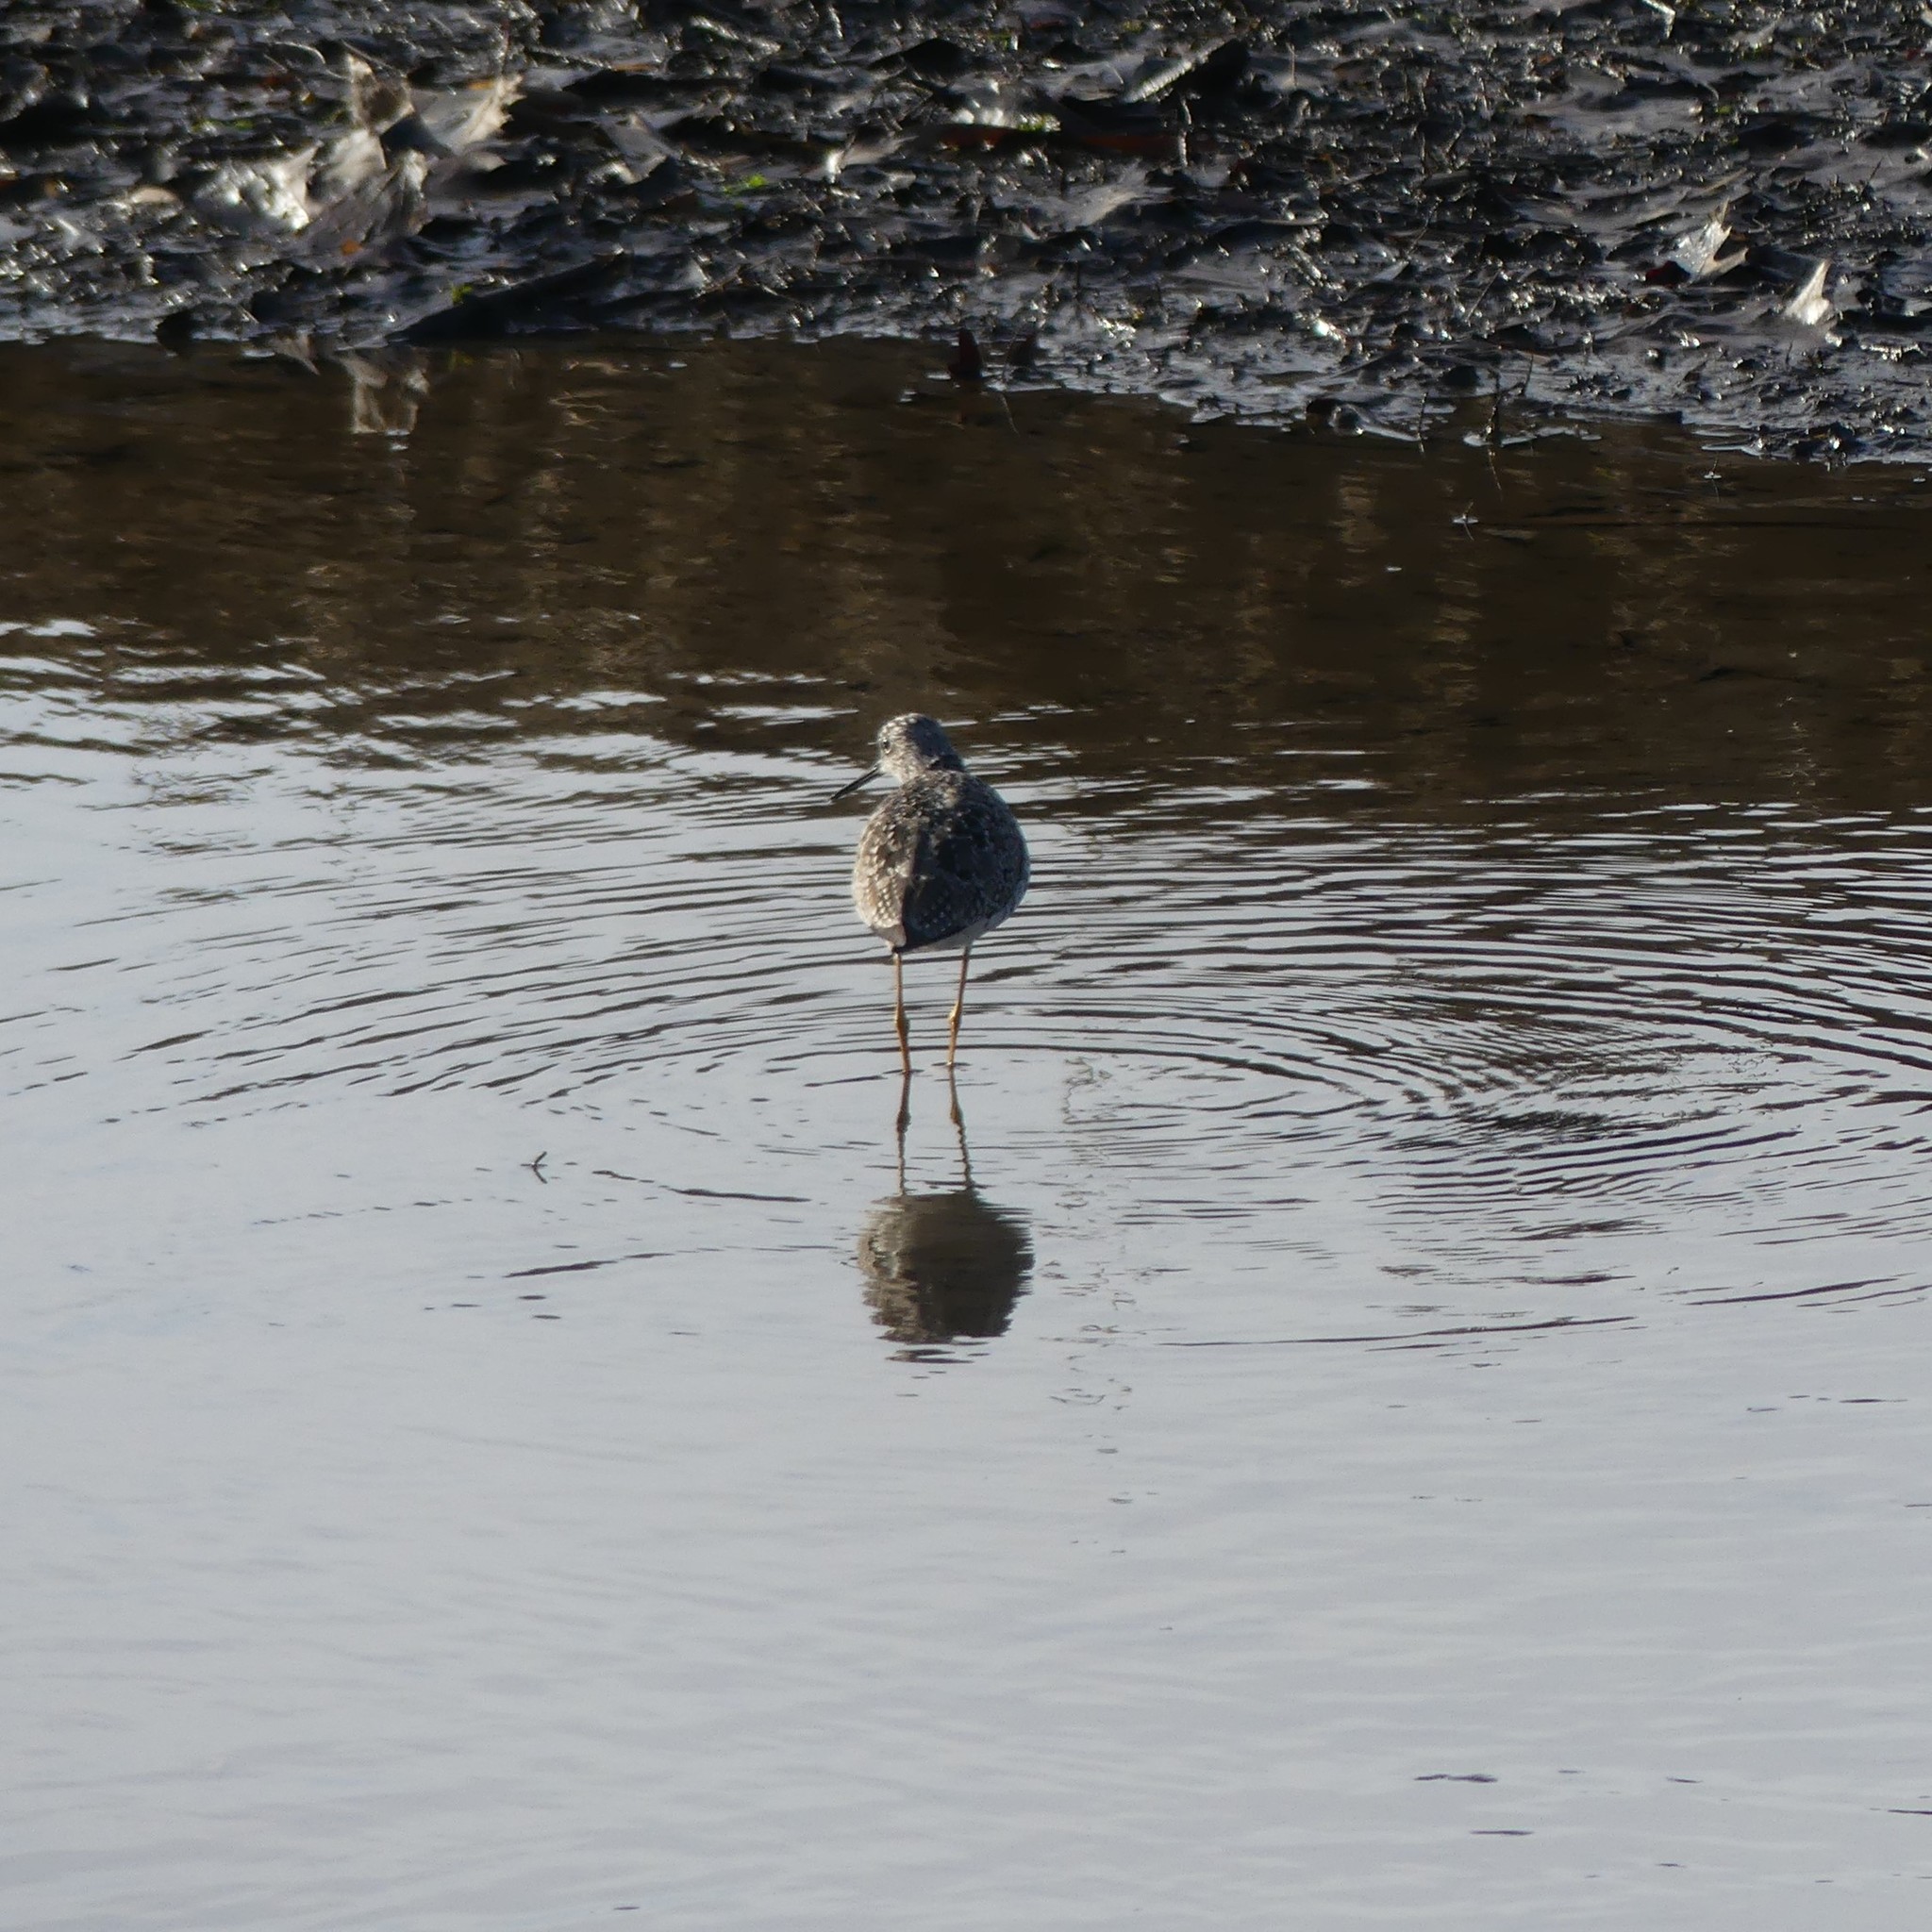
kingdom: Animalia
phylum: Chordata
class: Aves
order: Charadriiformes
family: Scolopacidae
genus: Tringa
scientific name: Tringa melanoleuca
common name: Greater yellowlegs
